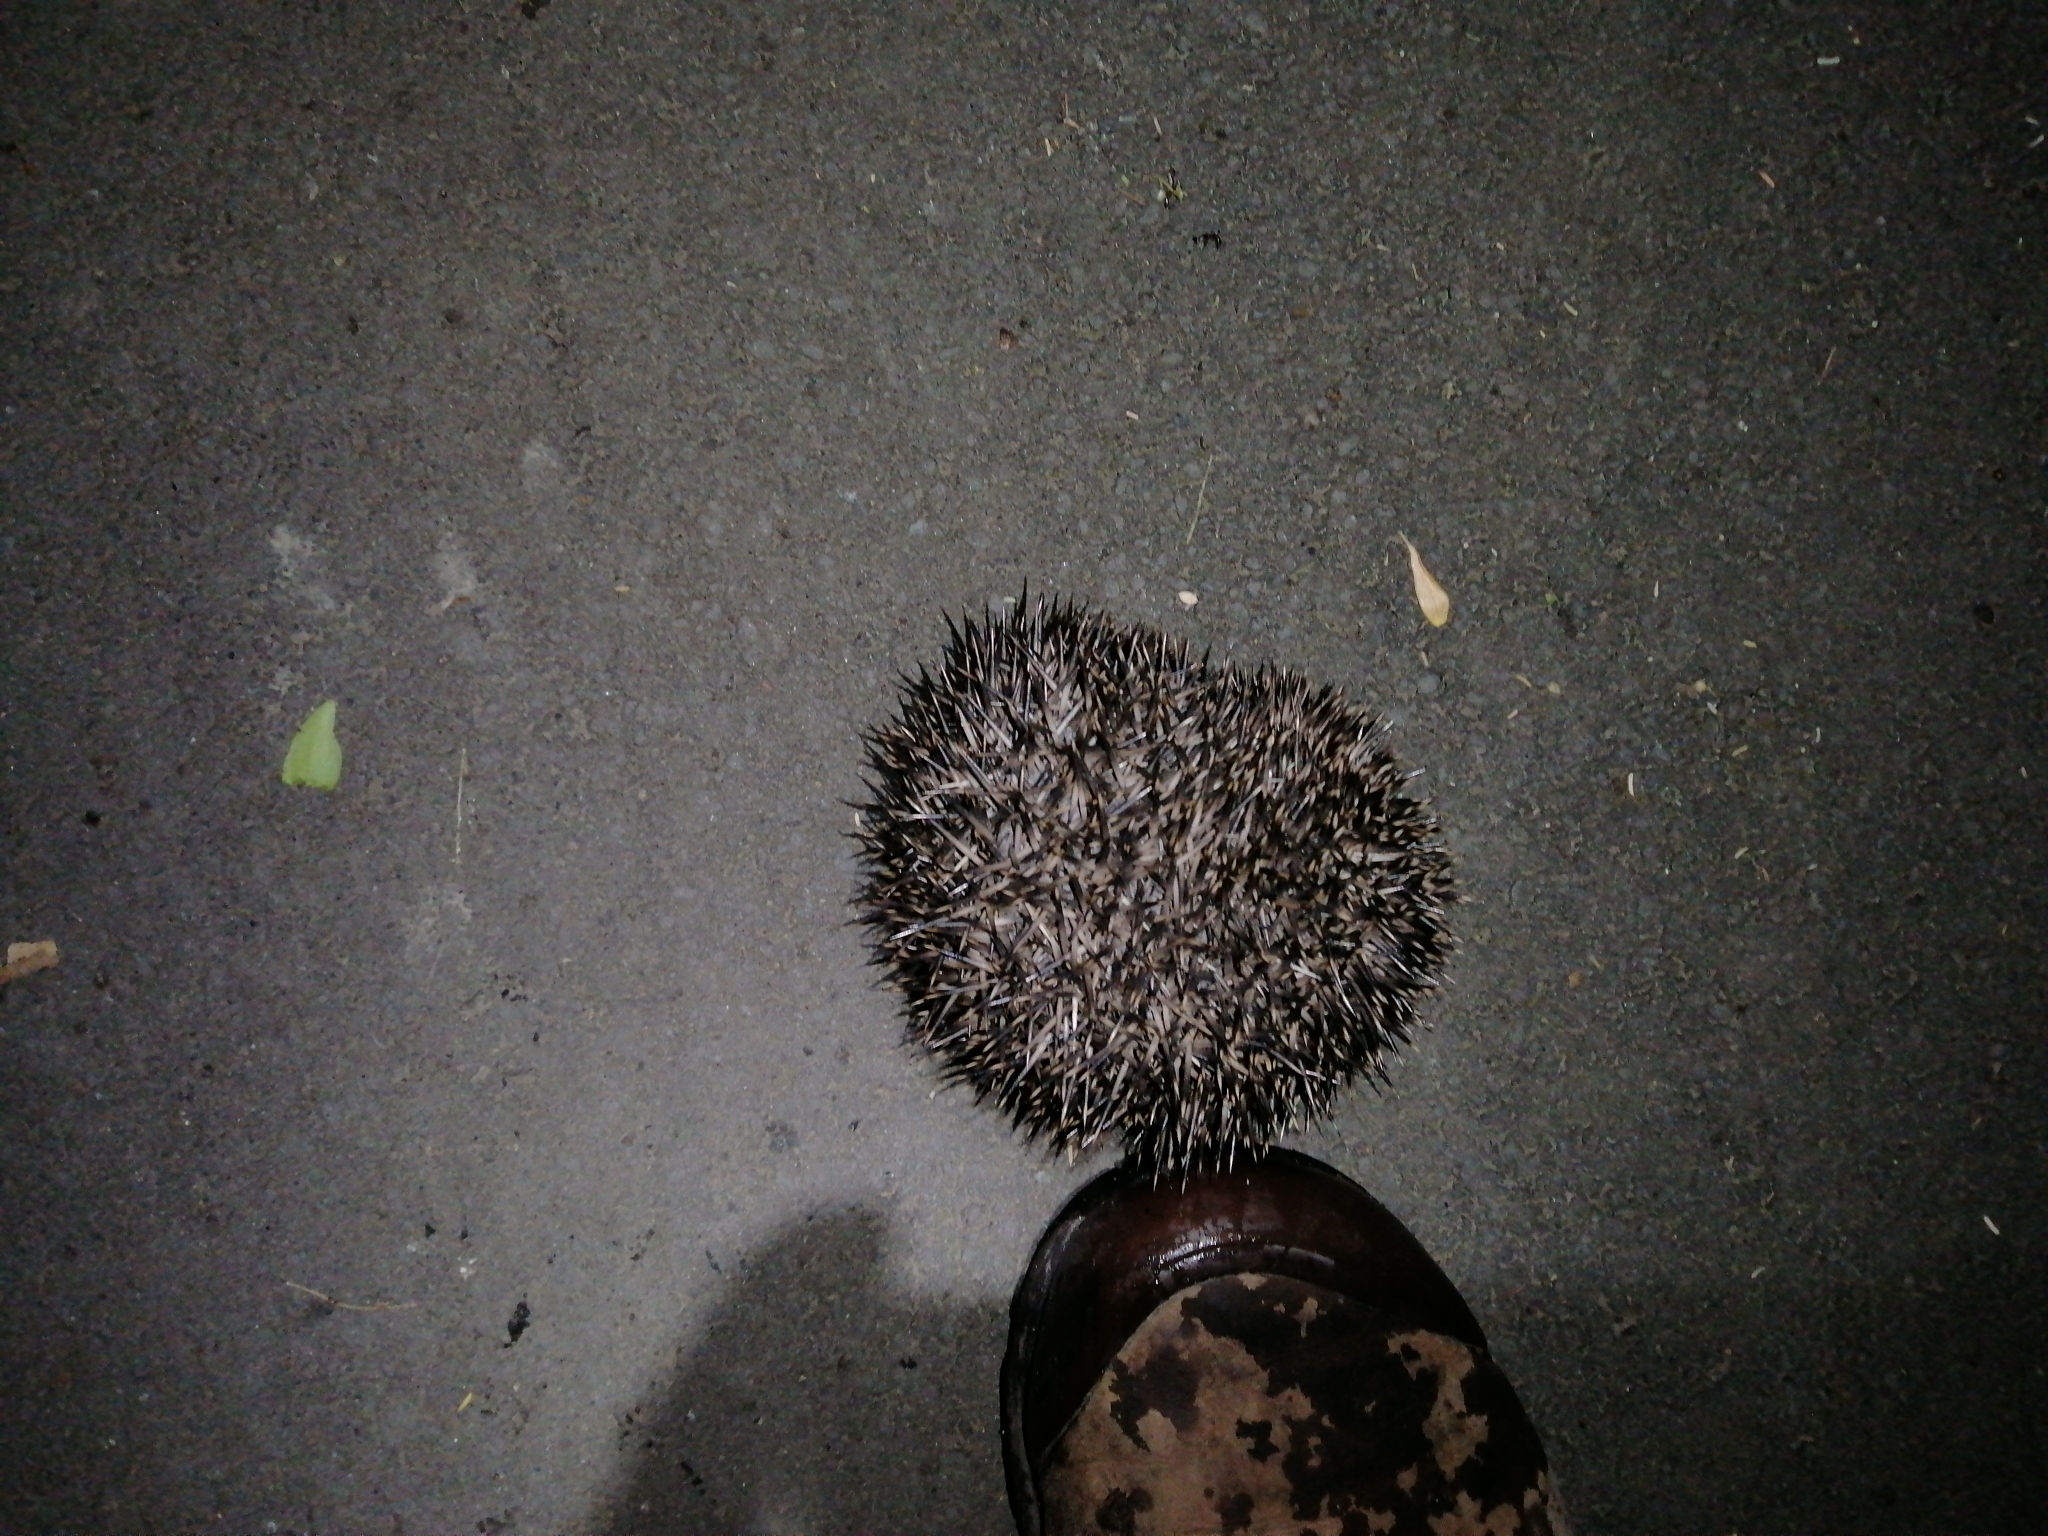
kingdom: Animalia
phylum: Chordata
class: Mammalia
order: Erinaceomorpha
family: Erinaceidae
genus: Erinaceus
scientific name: Erinaceus europaeus
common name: West european hedgehog
